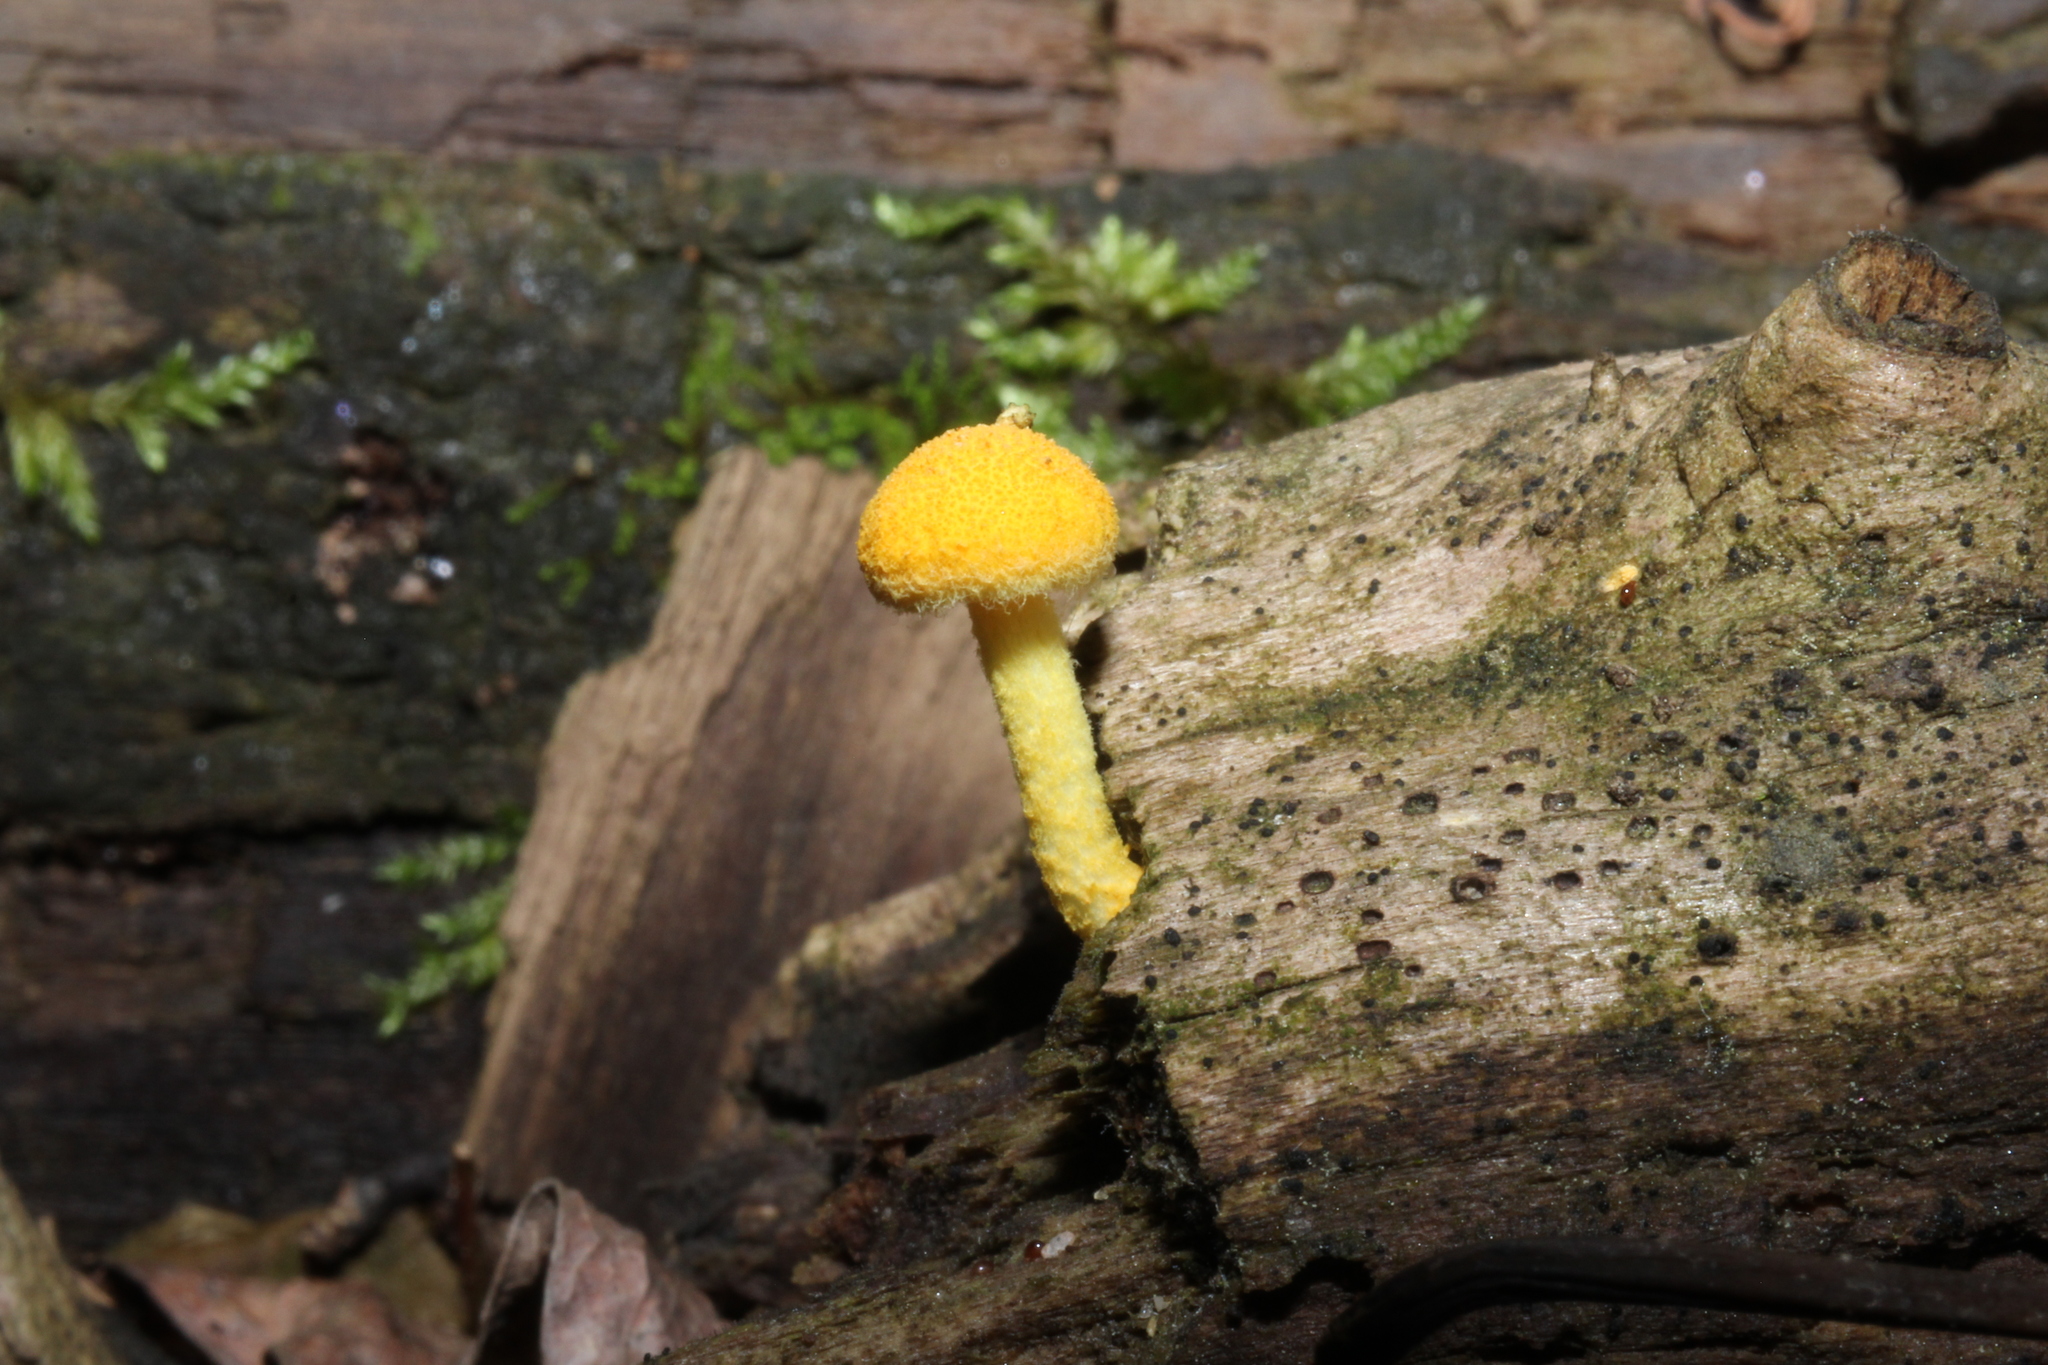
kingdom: Fungi
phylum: Basidiomycota
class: Agaricomycetes
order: Agaricales
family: Physalacriaceae
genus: Cyptotrama
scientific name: Cyptotrama chrysopepla
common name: Golden coincap
